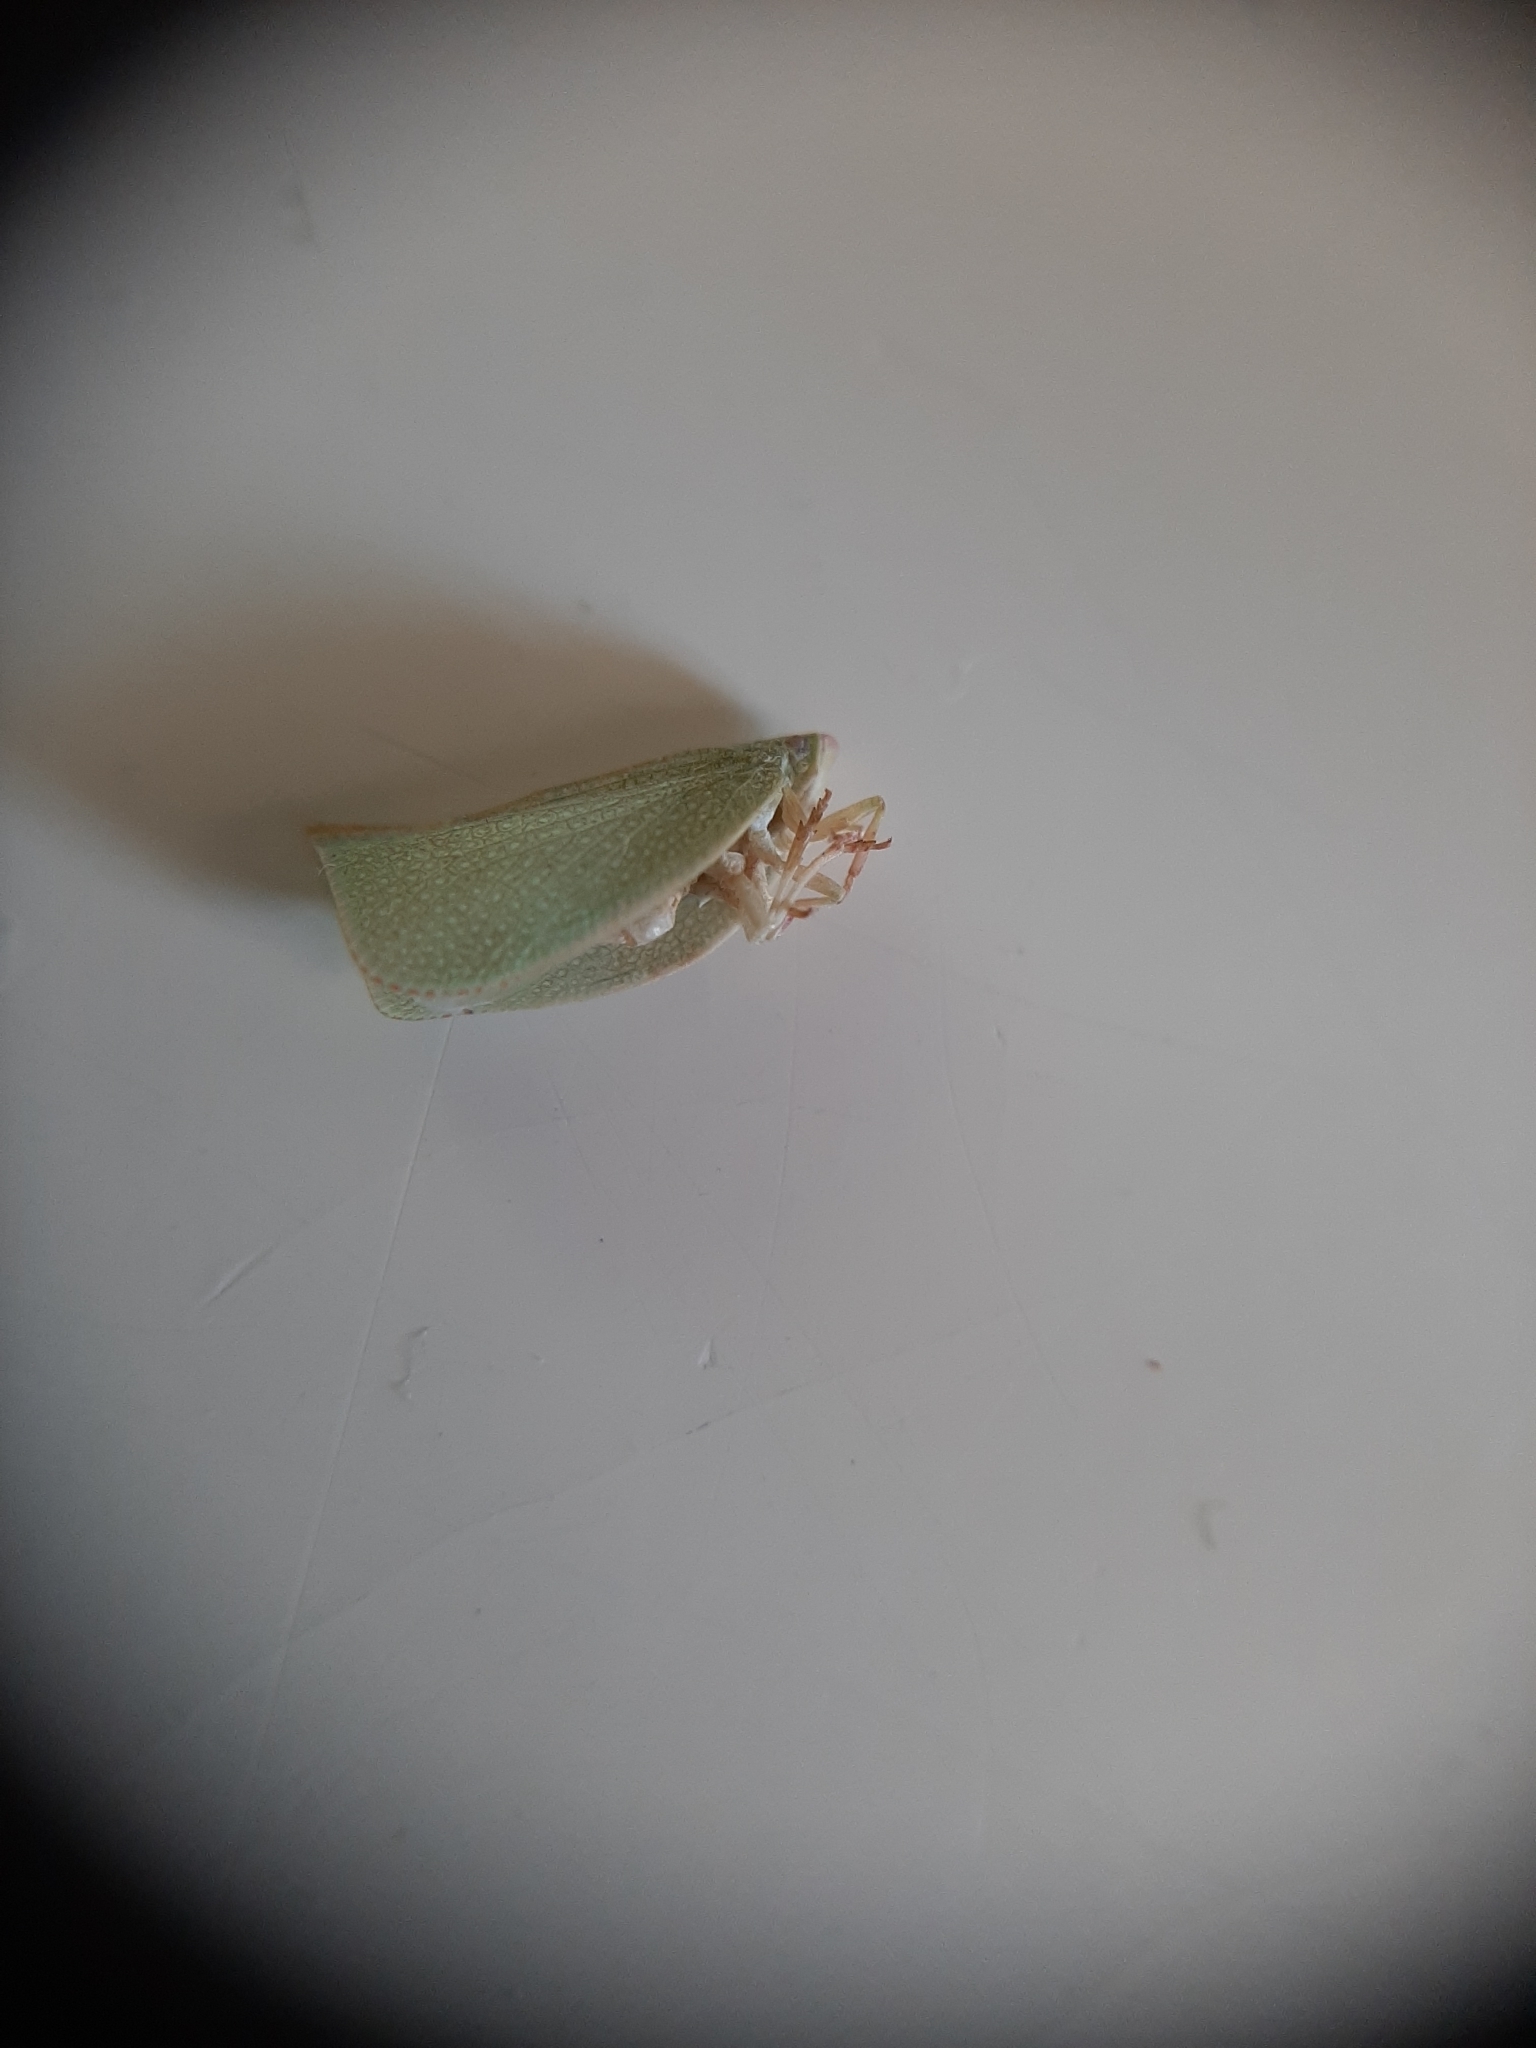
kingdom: Animalia
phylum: Arthropoda
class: Insecta
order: Hemiptera
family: Flatidae
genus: Siphanta
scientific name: Siphanta acuta
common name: Torpedo bug
